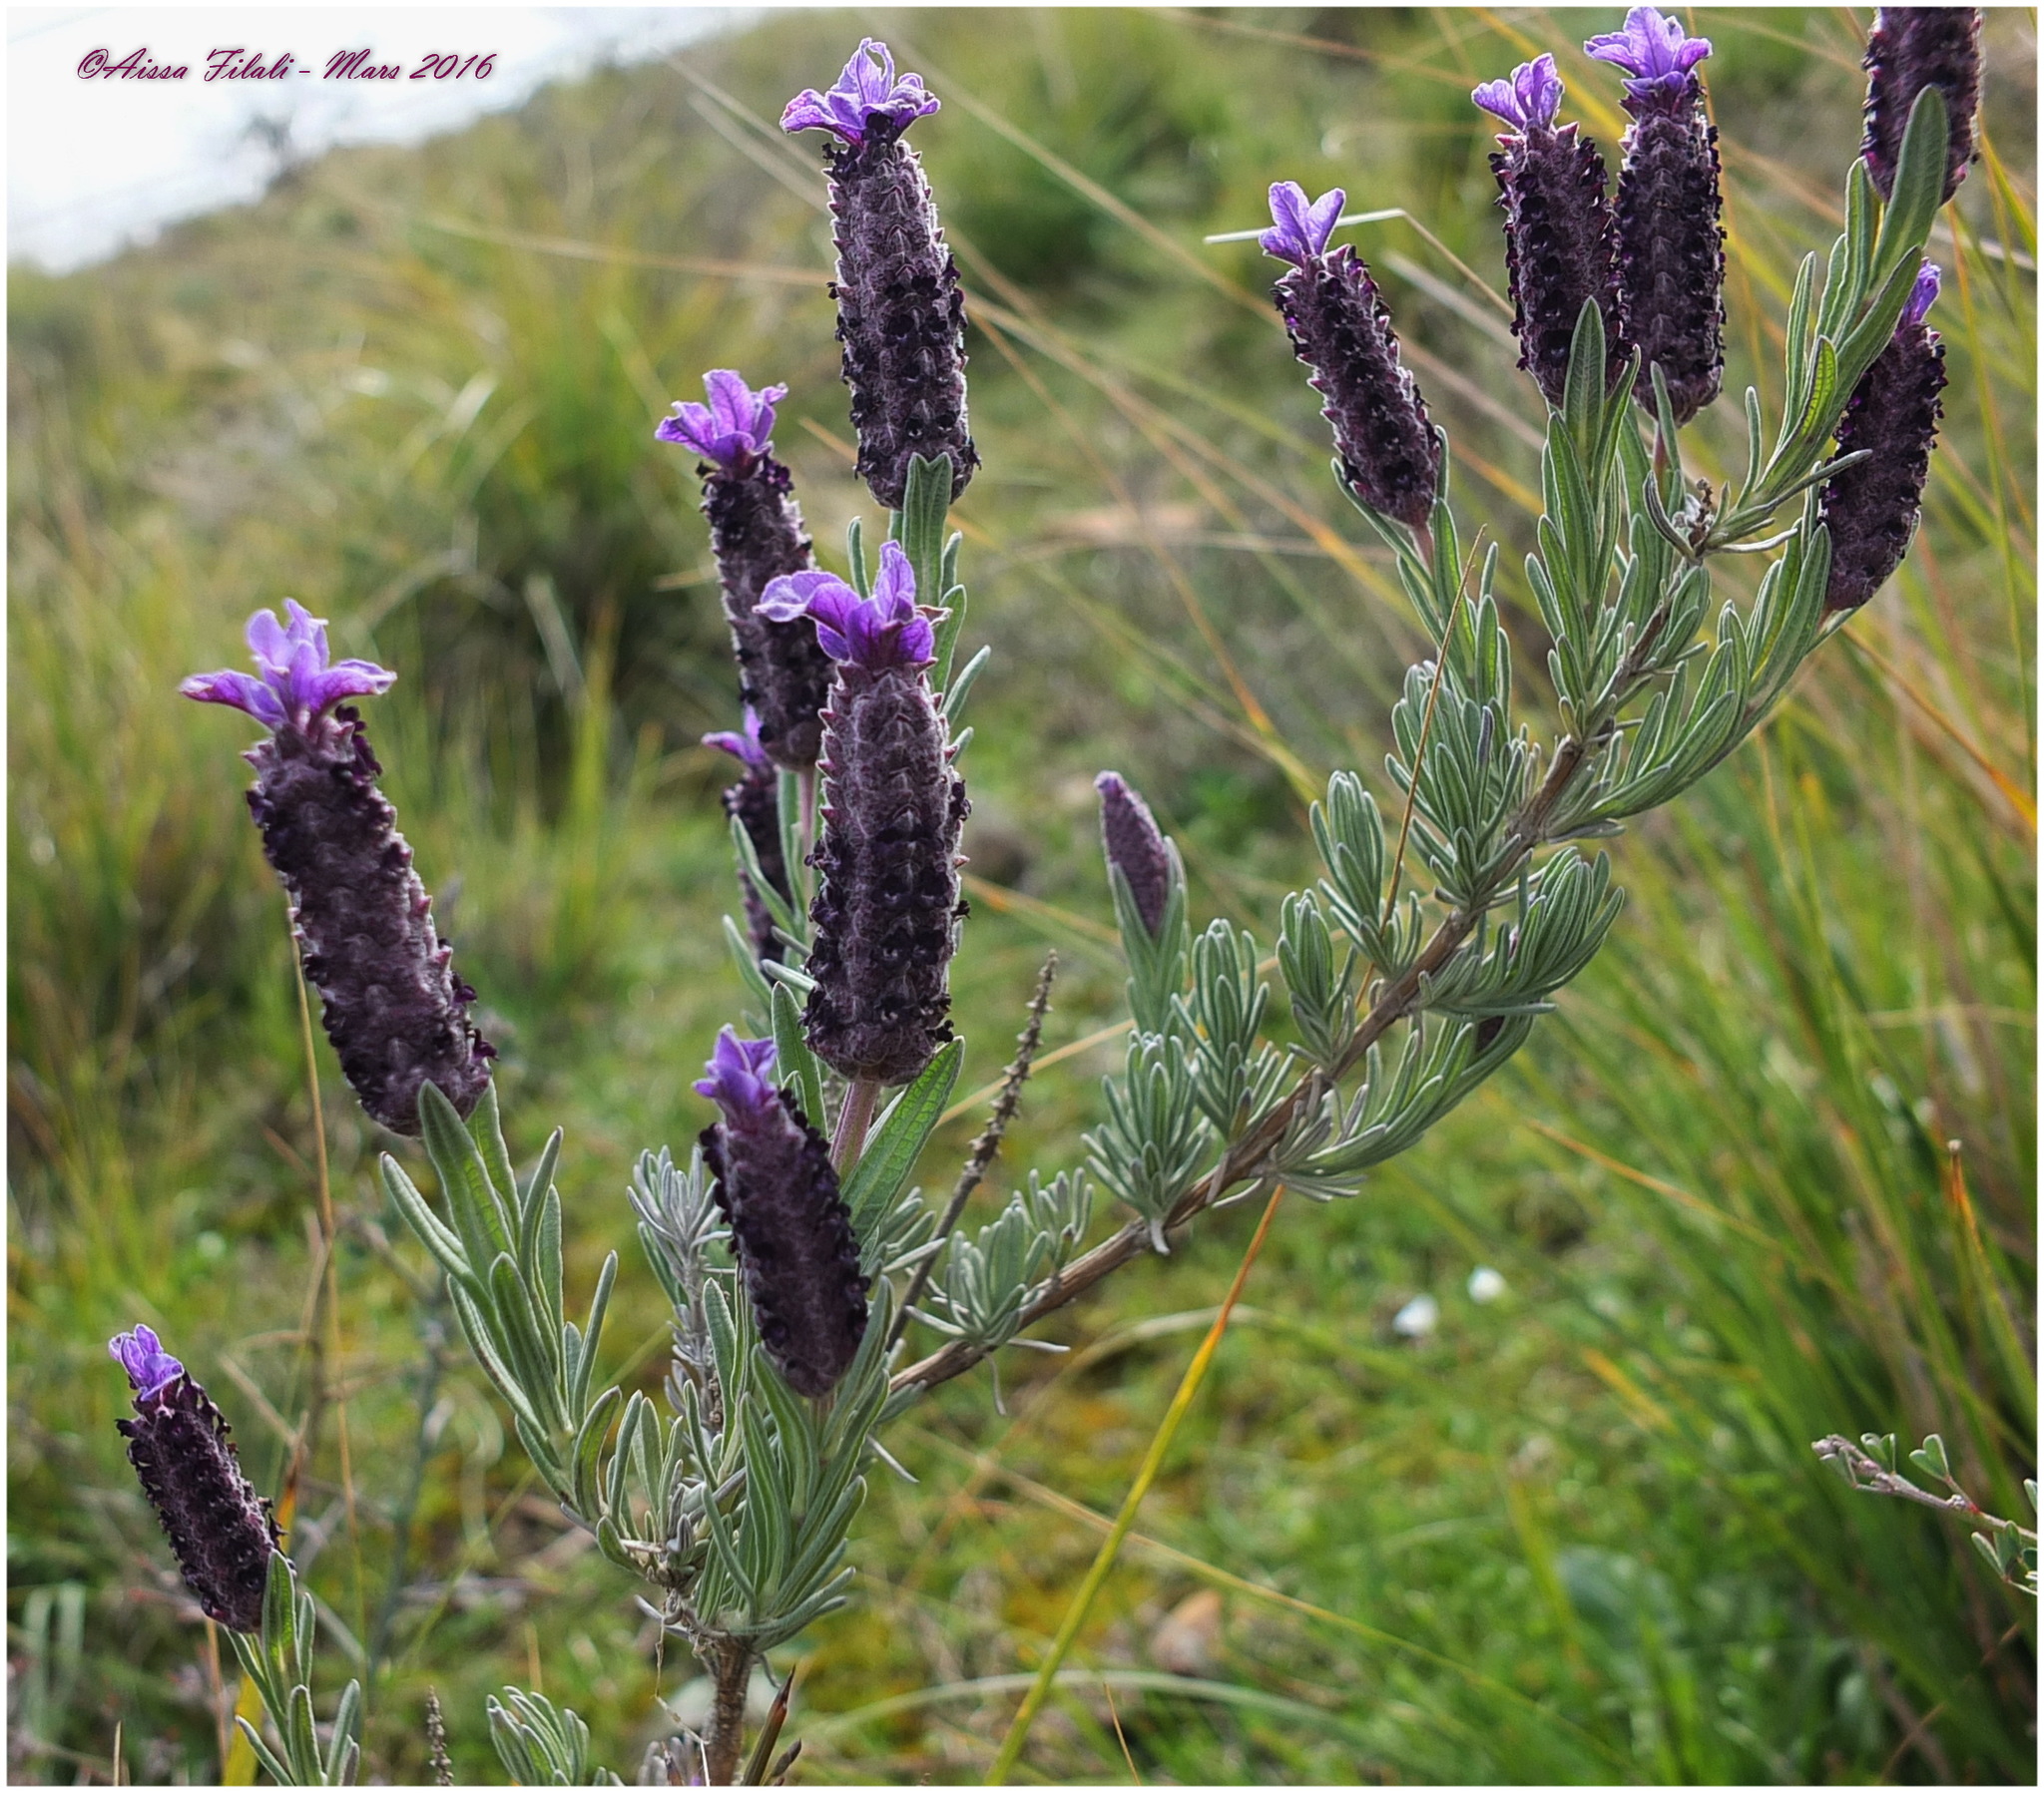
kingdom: Plantae
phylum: Tracheophyta
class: Magnoliopsida
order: Lamiales
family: Lamiaceae
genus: Lavandula
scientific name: Lavandula stoechas
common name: French lavender
